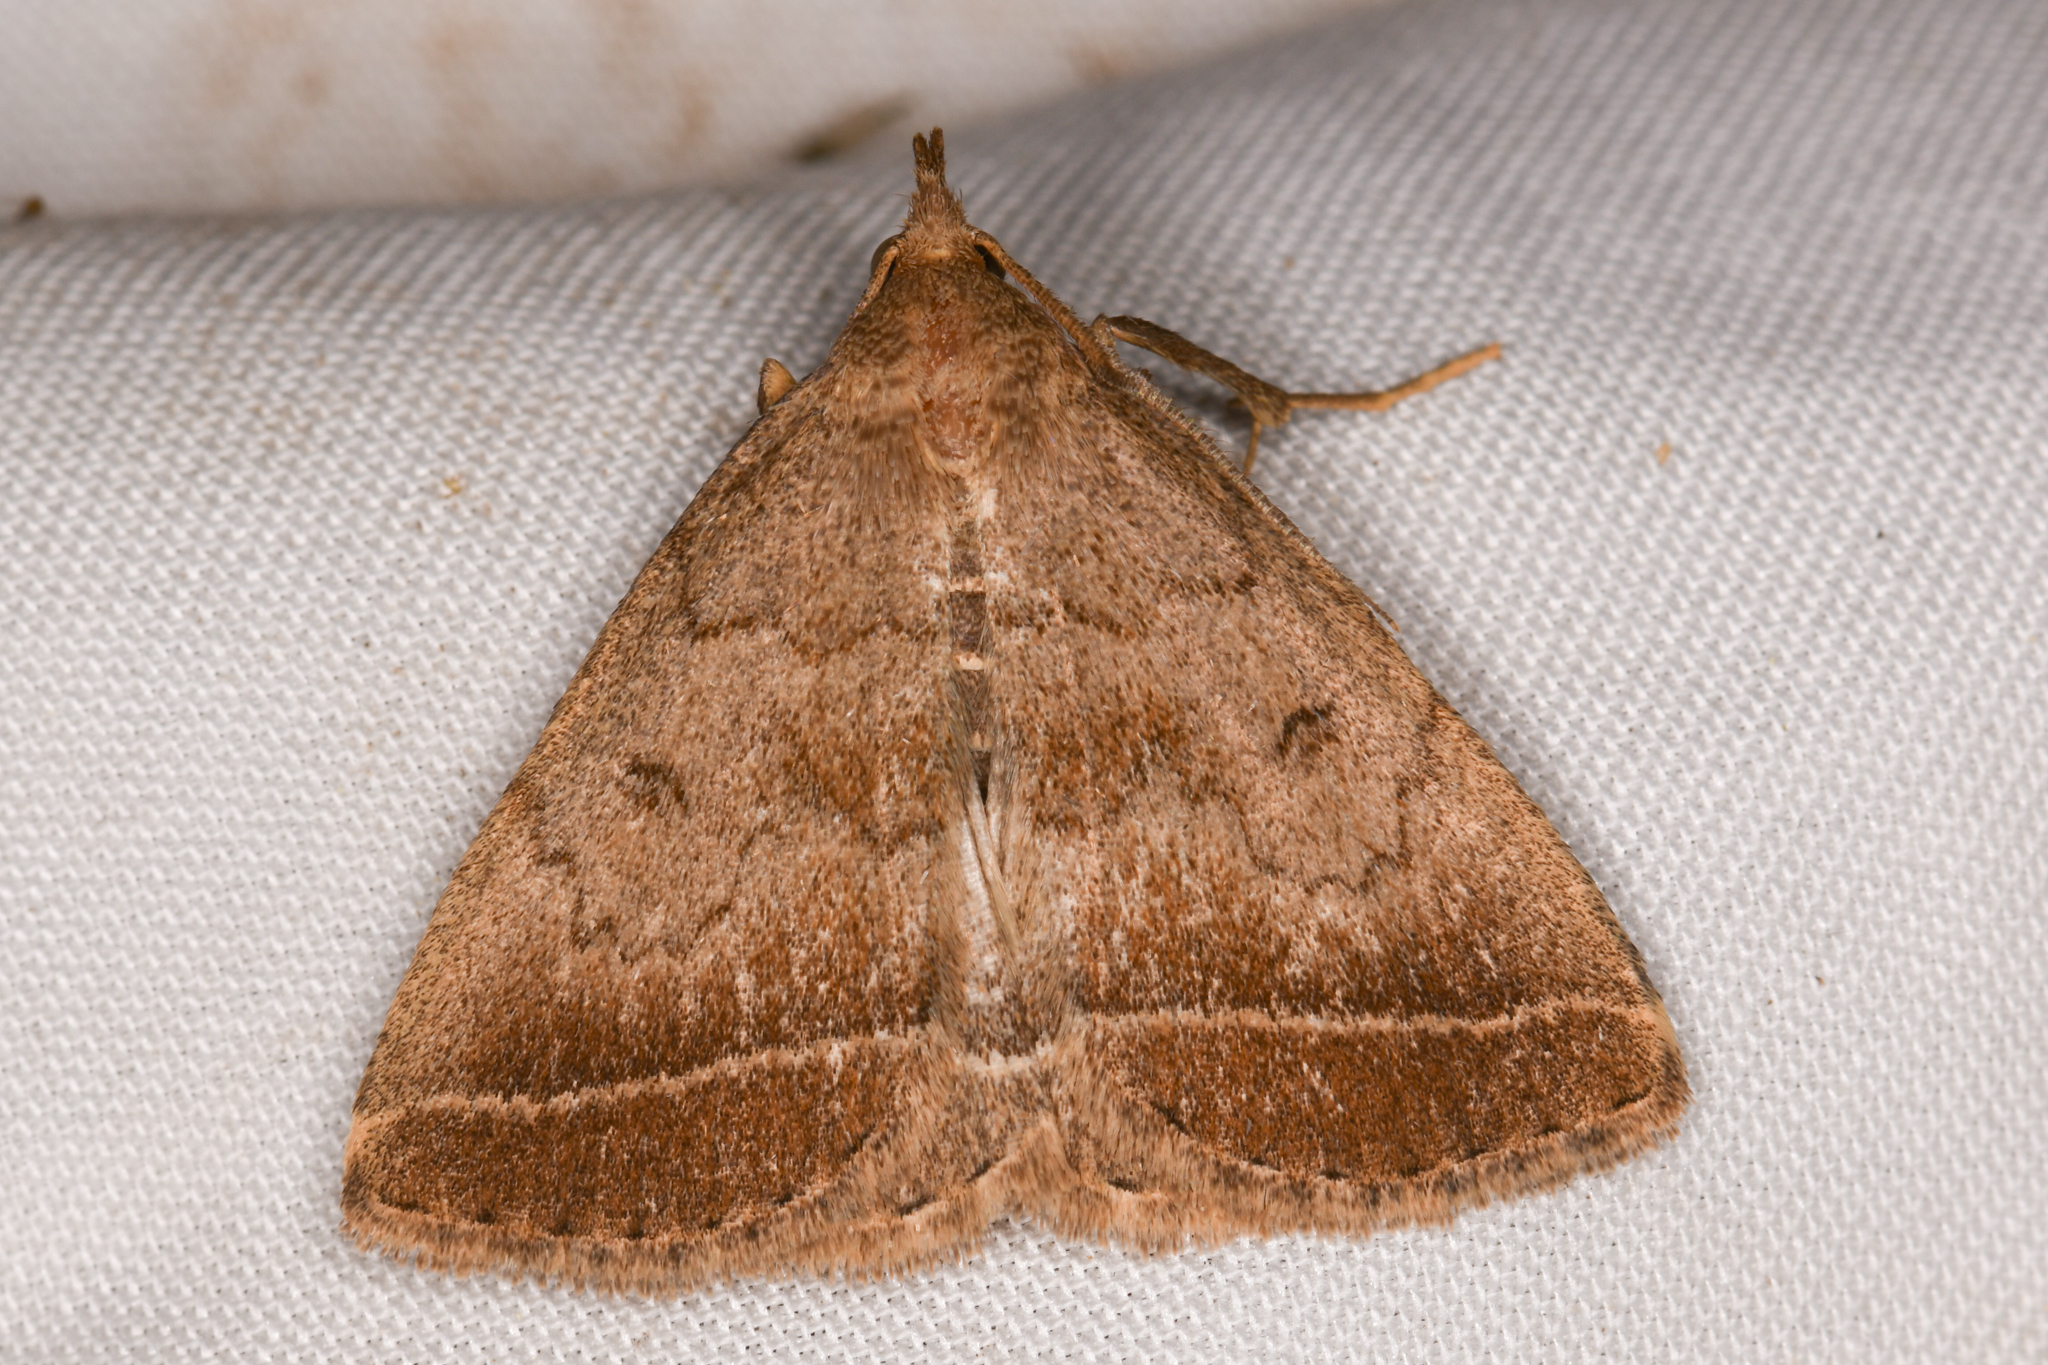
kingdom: Animalia
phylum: Arthropoda
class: Insecta
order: Lepidoptera
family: Erebidae
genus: Zanclognatha
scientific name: Zanclognatha jacchusalis
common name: Yellowish zanclognatha
